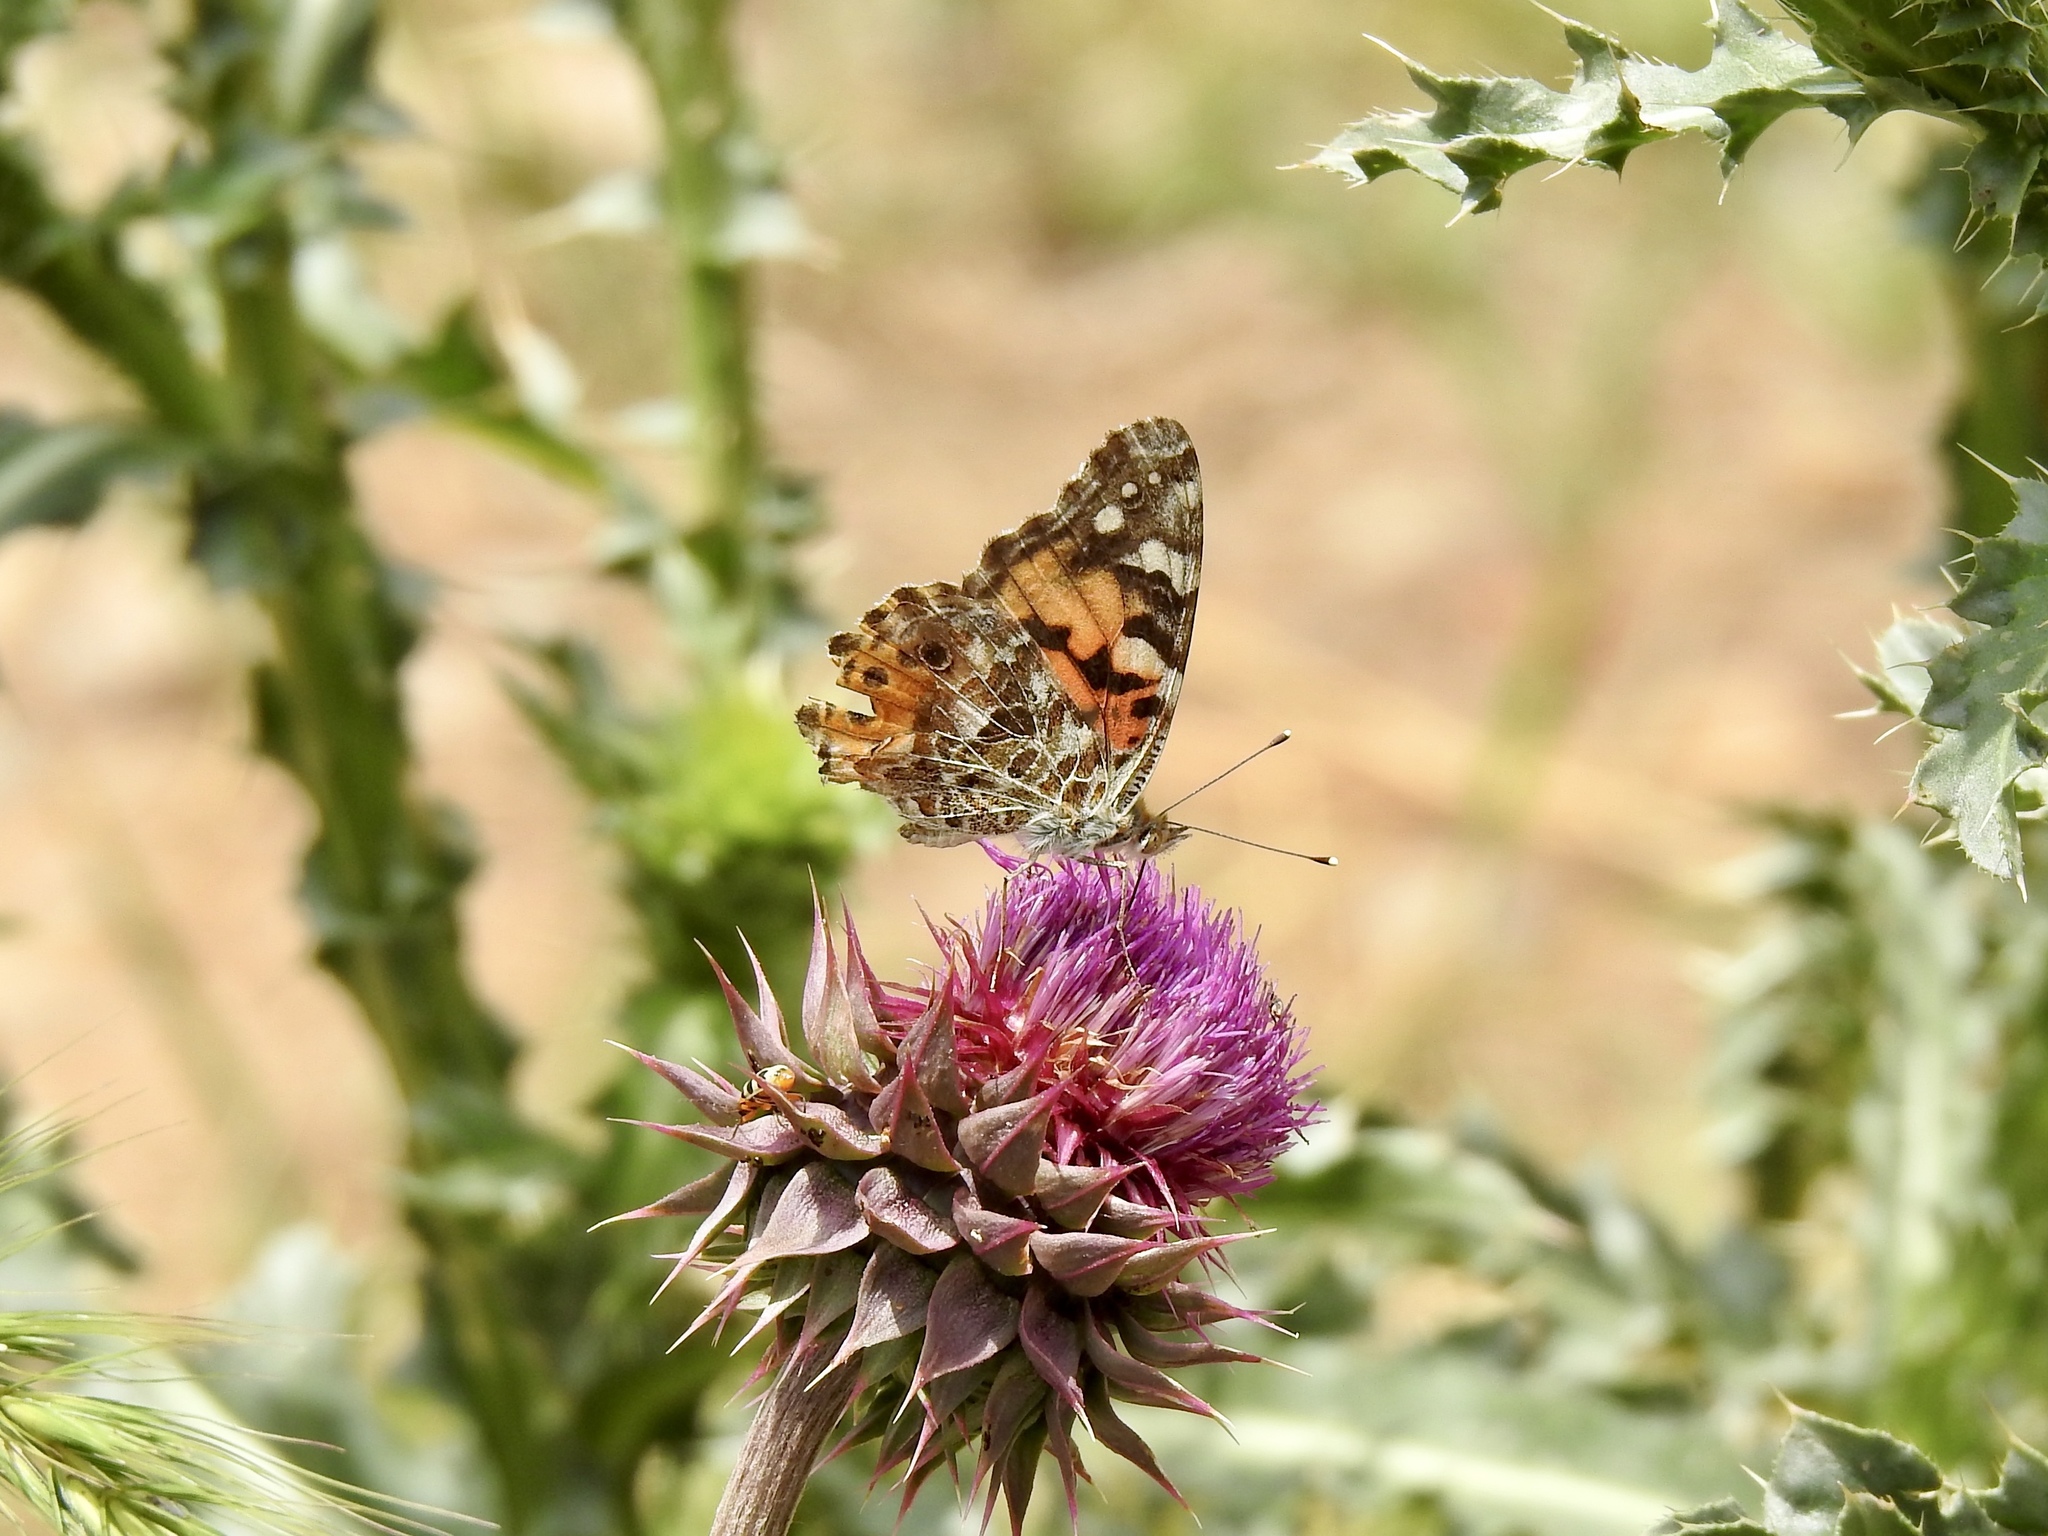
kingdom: Animalia
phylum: Arthropoda
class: Insecta
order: Lepidoptera
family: Nymphalidae
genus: Vanessa
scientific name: Vanessa cardui
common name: Painted lady
